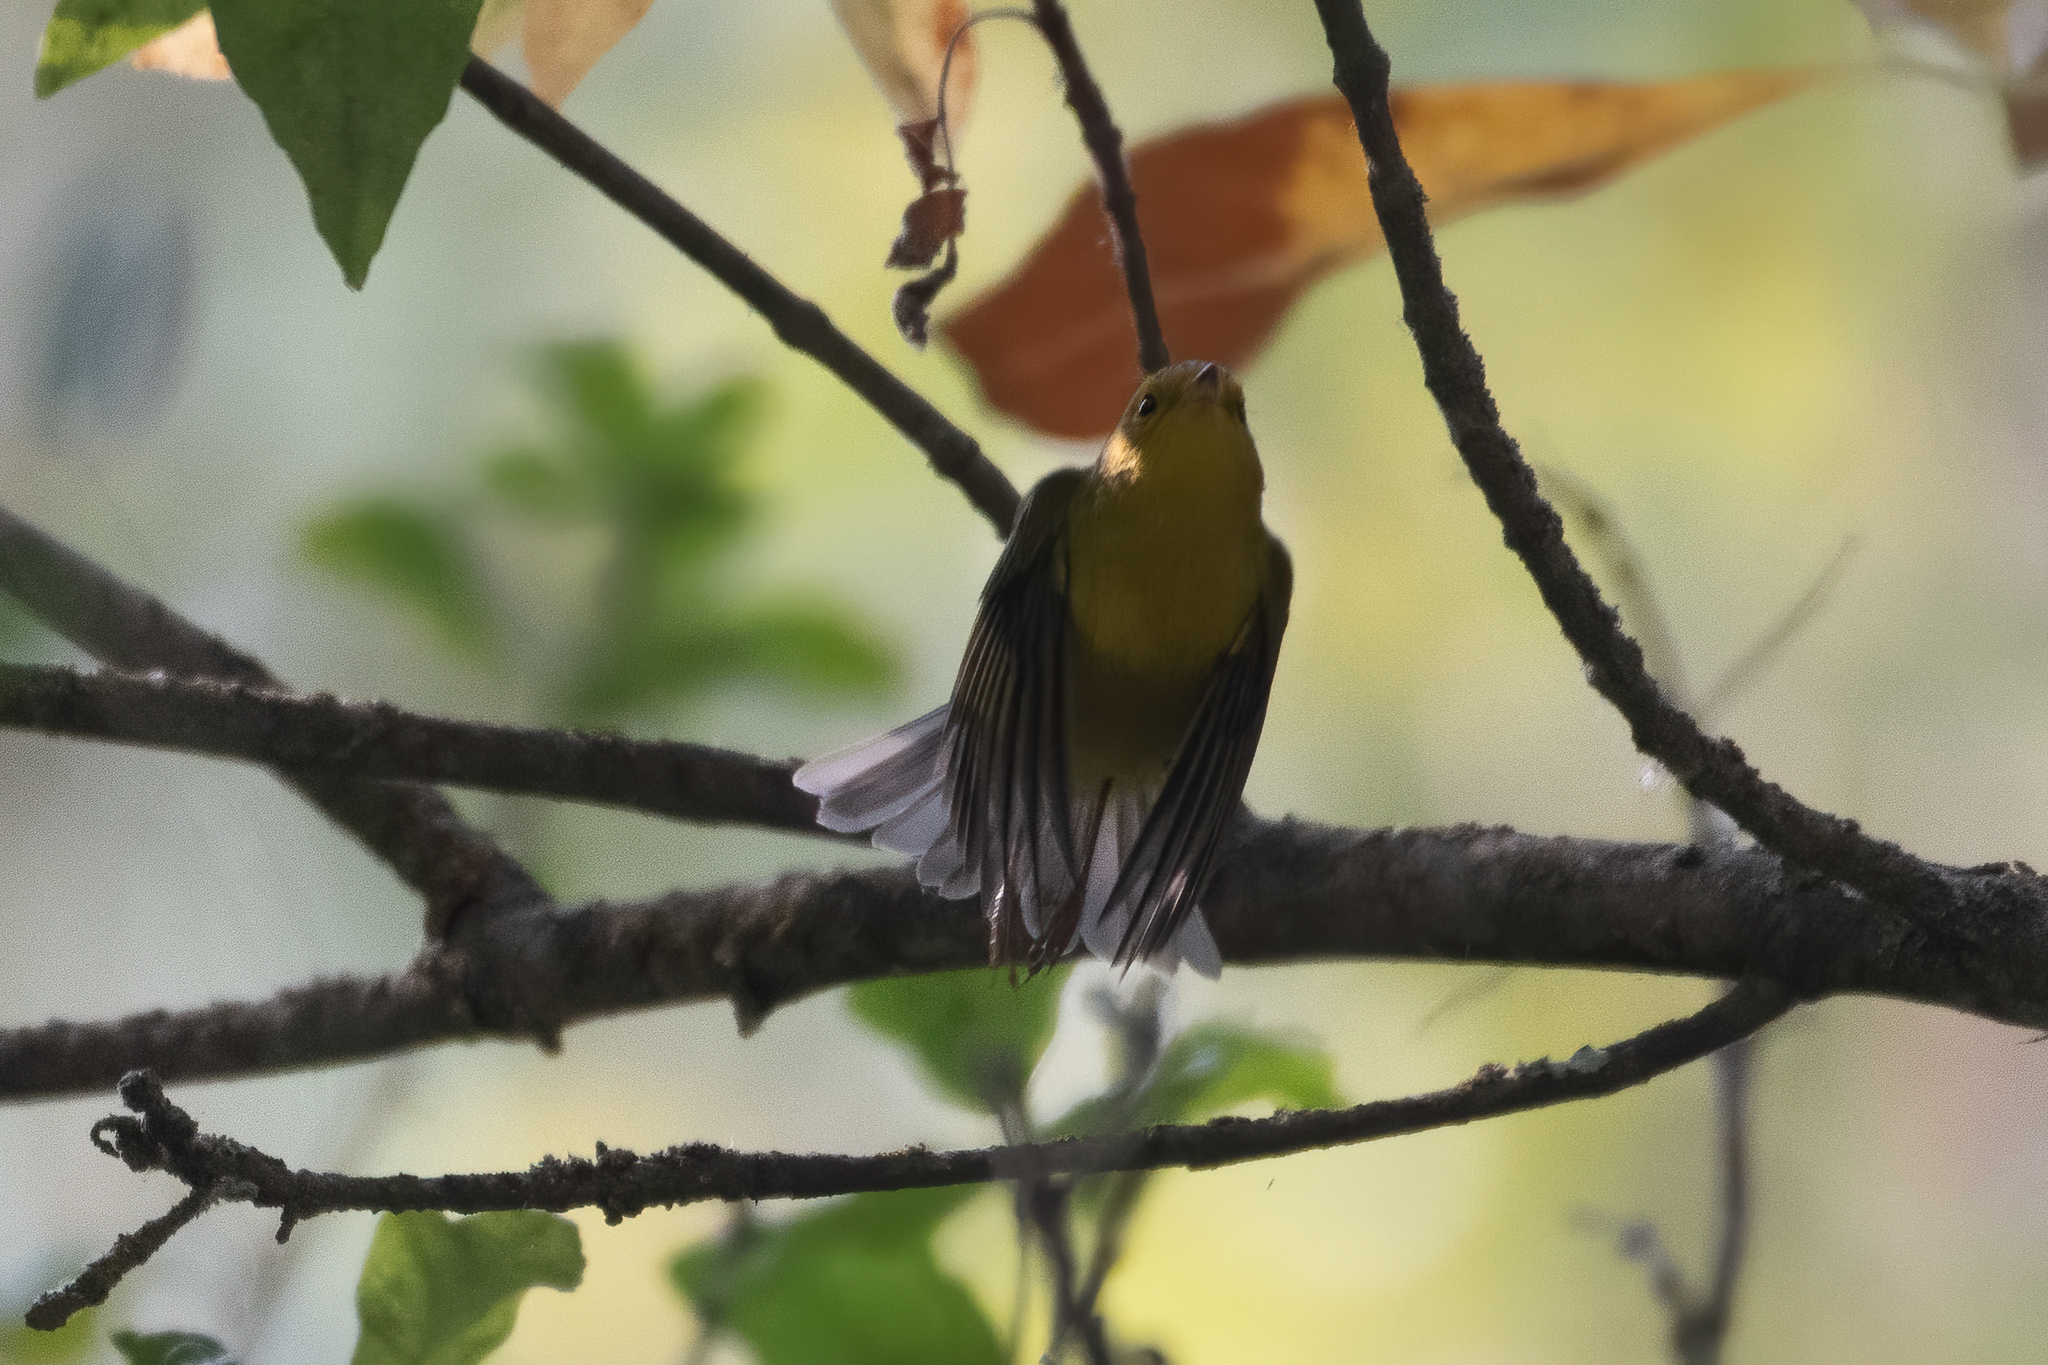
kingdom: Animalia
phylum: Chordata
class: Aves
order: Passeriformes
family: Parulidae
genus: Cardellina
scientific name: Cardellina pusilla
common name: Wilson's warbler
